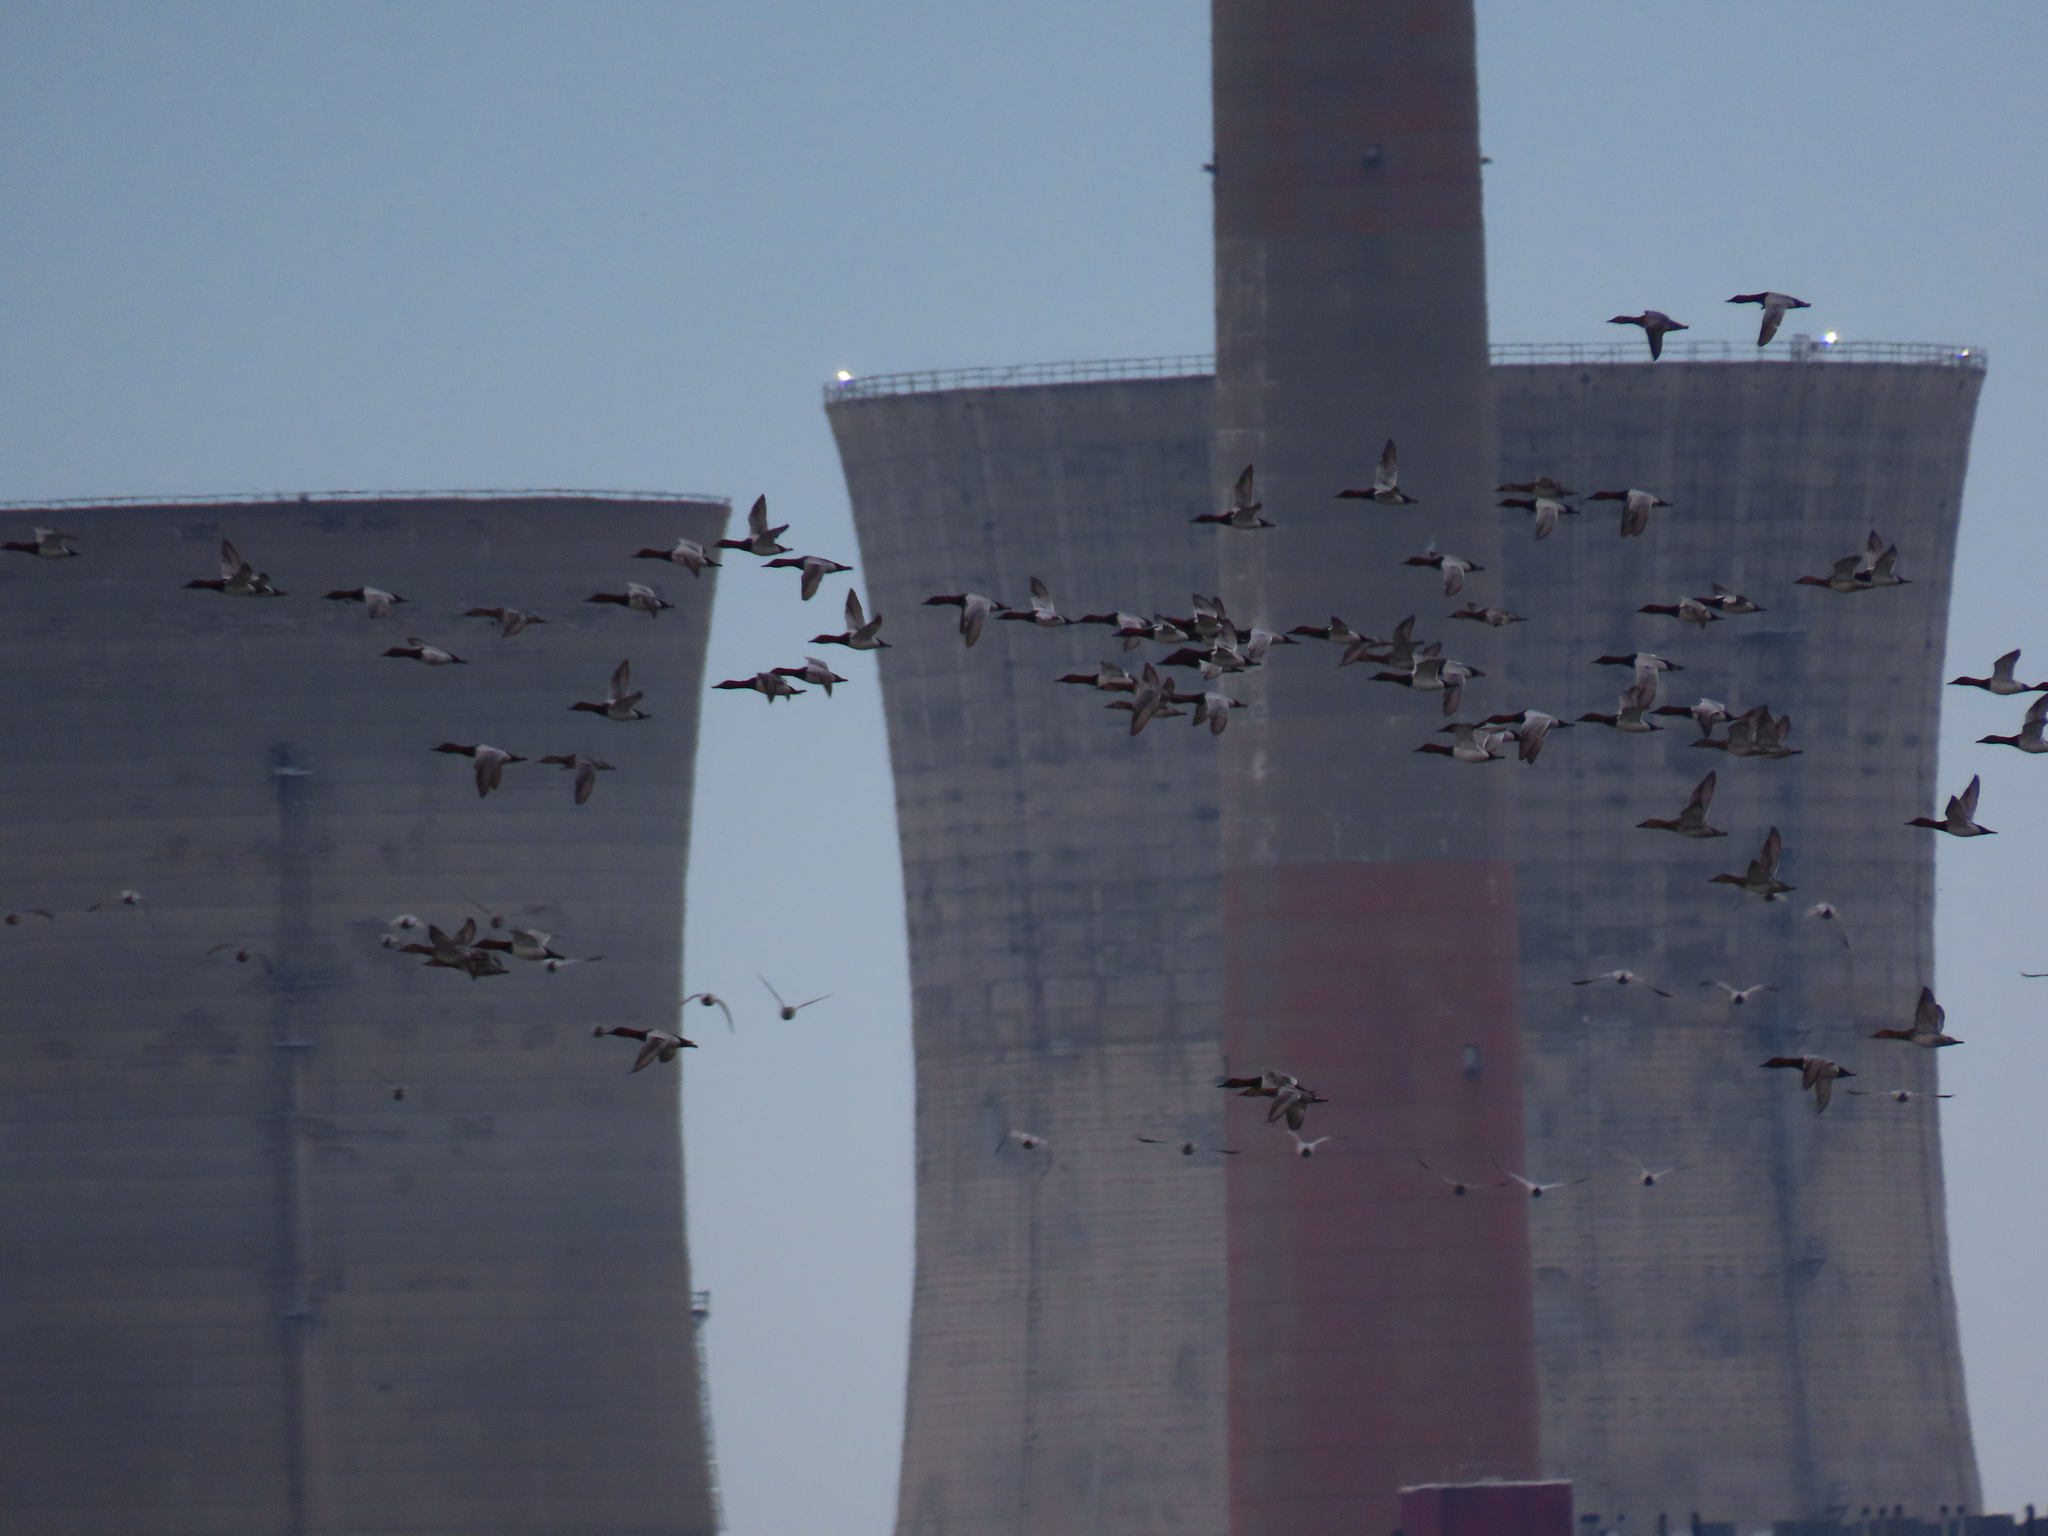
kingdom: Animalia
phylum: Chordata
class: Aves
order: Anseriformes
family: Anatidae
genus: Aythya
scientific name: Aythya valisineria
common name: Canvasback
